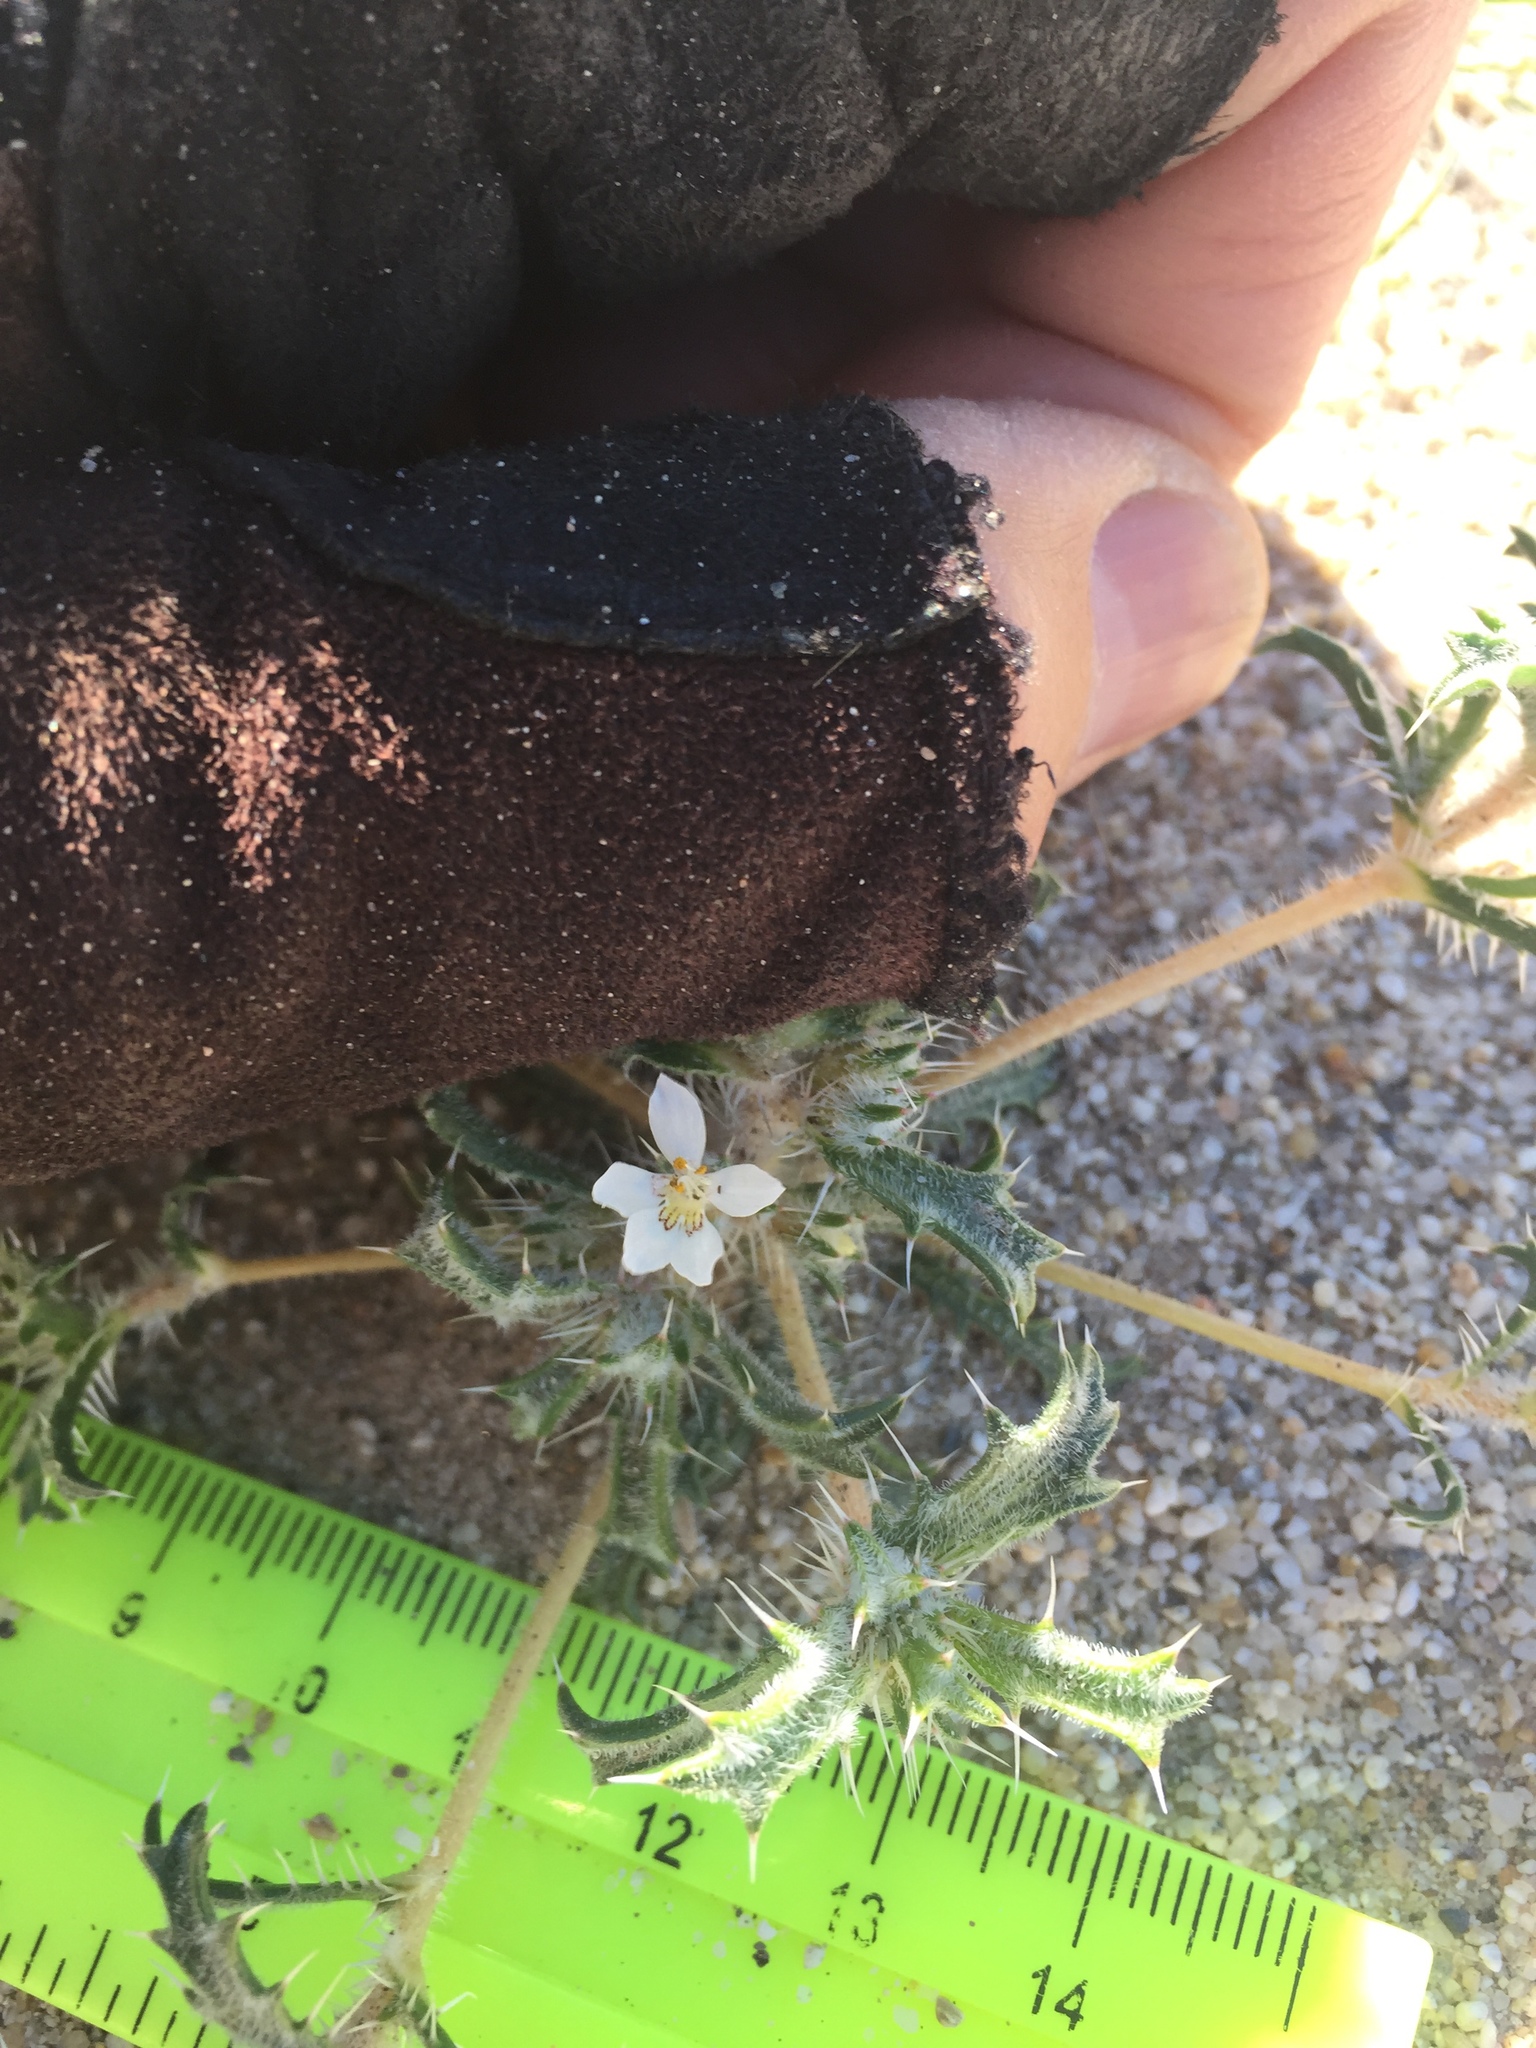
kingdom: Plantae
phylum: Tracheophyta
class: Magnoliopsida
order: Ericales
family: Polemoniaceae
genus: Loeseliastrum
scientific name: Loeseliastrum schottii
